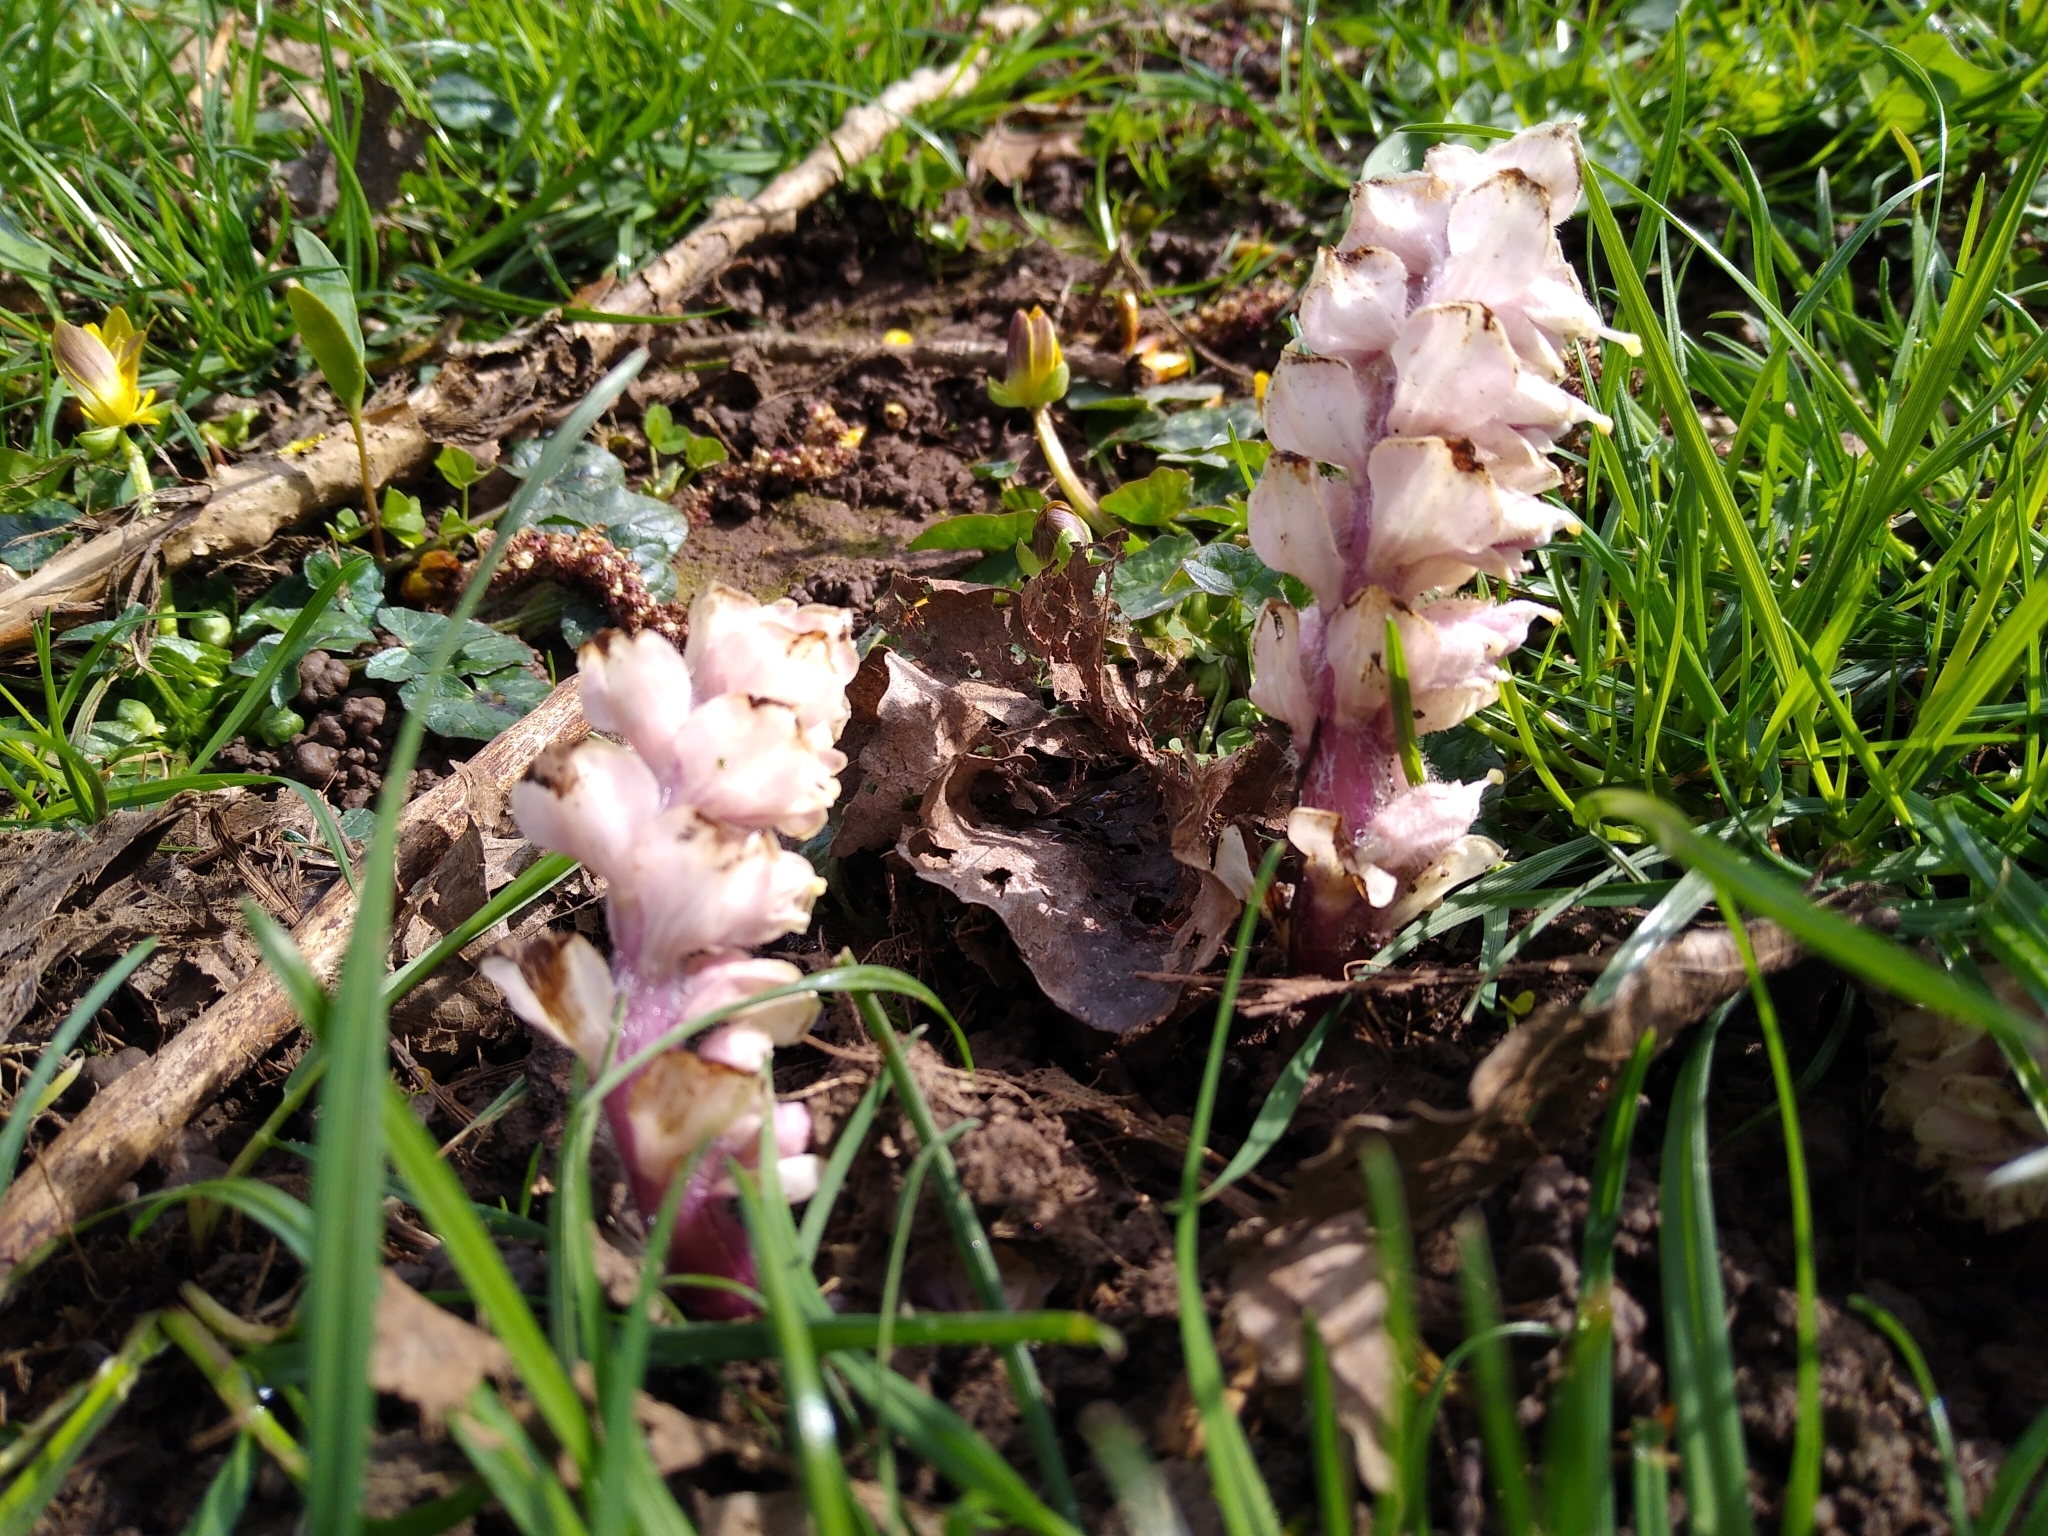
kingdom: Plantae
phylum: Tracheophyta
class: Magnoliopsida
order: Lamiales
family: Orobanchaceae
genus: Lathraea
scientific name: Lathraea squamaria
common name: Toothwort
